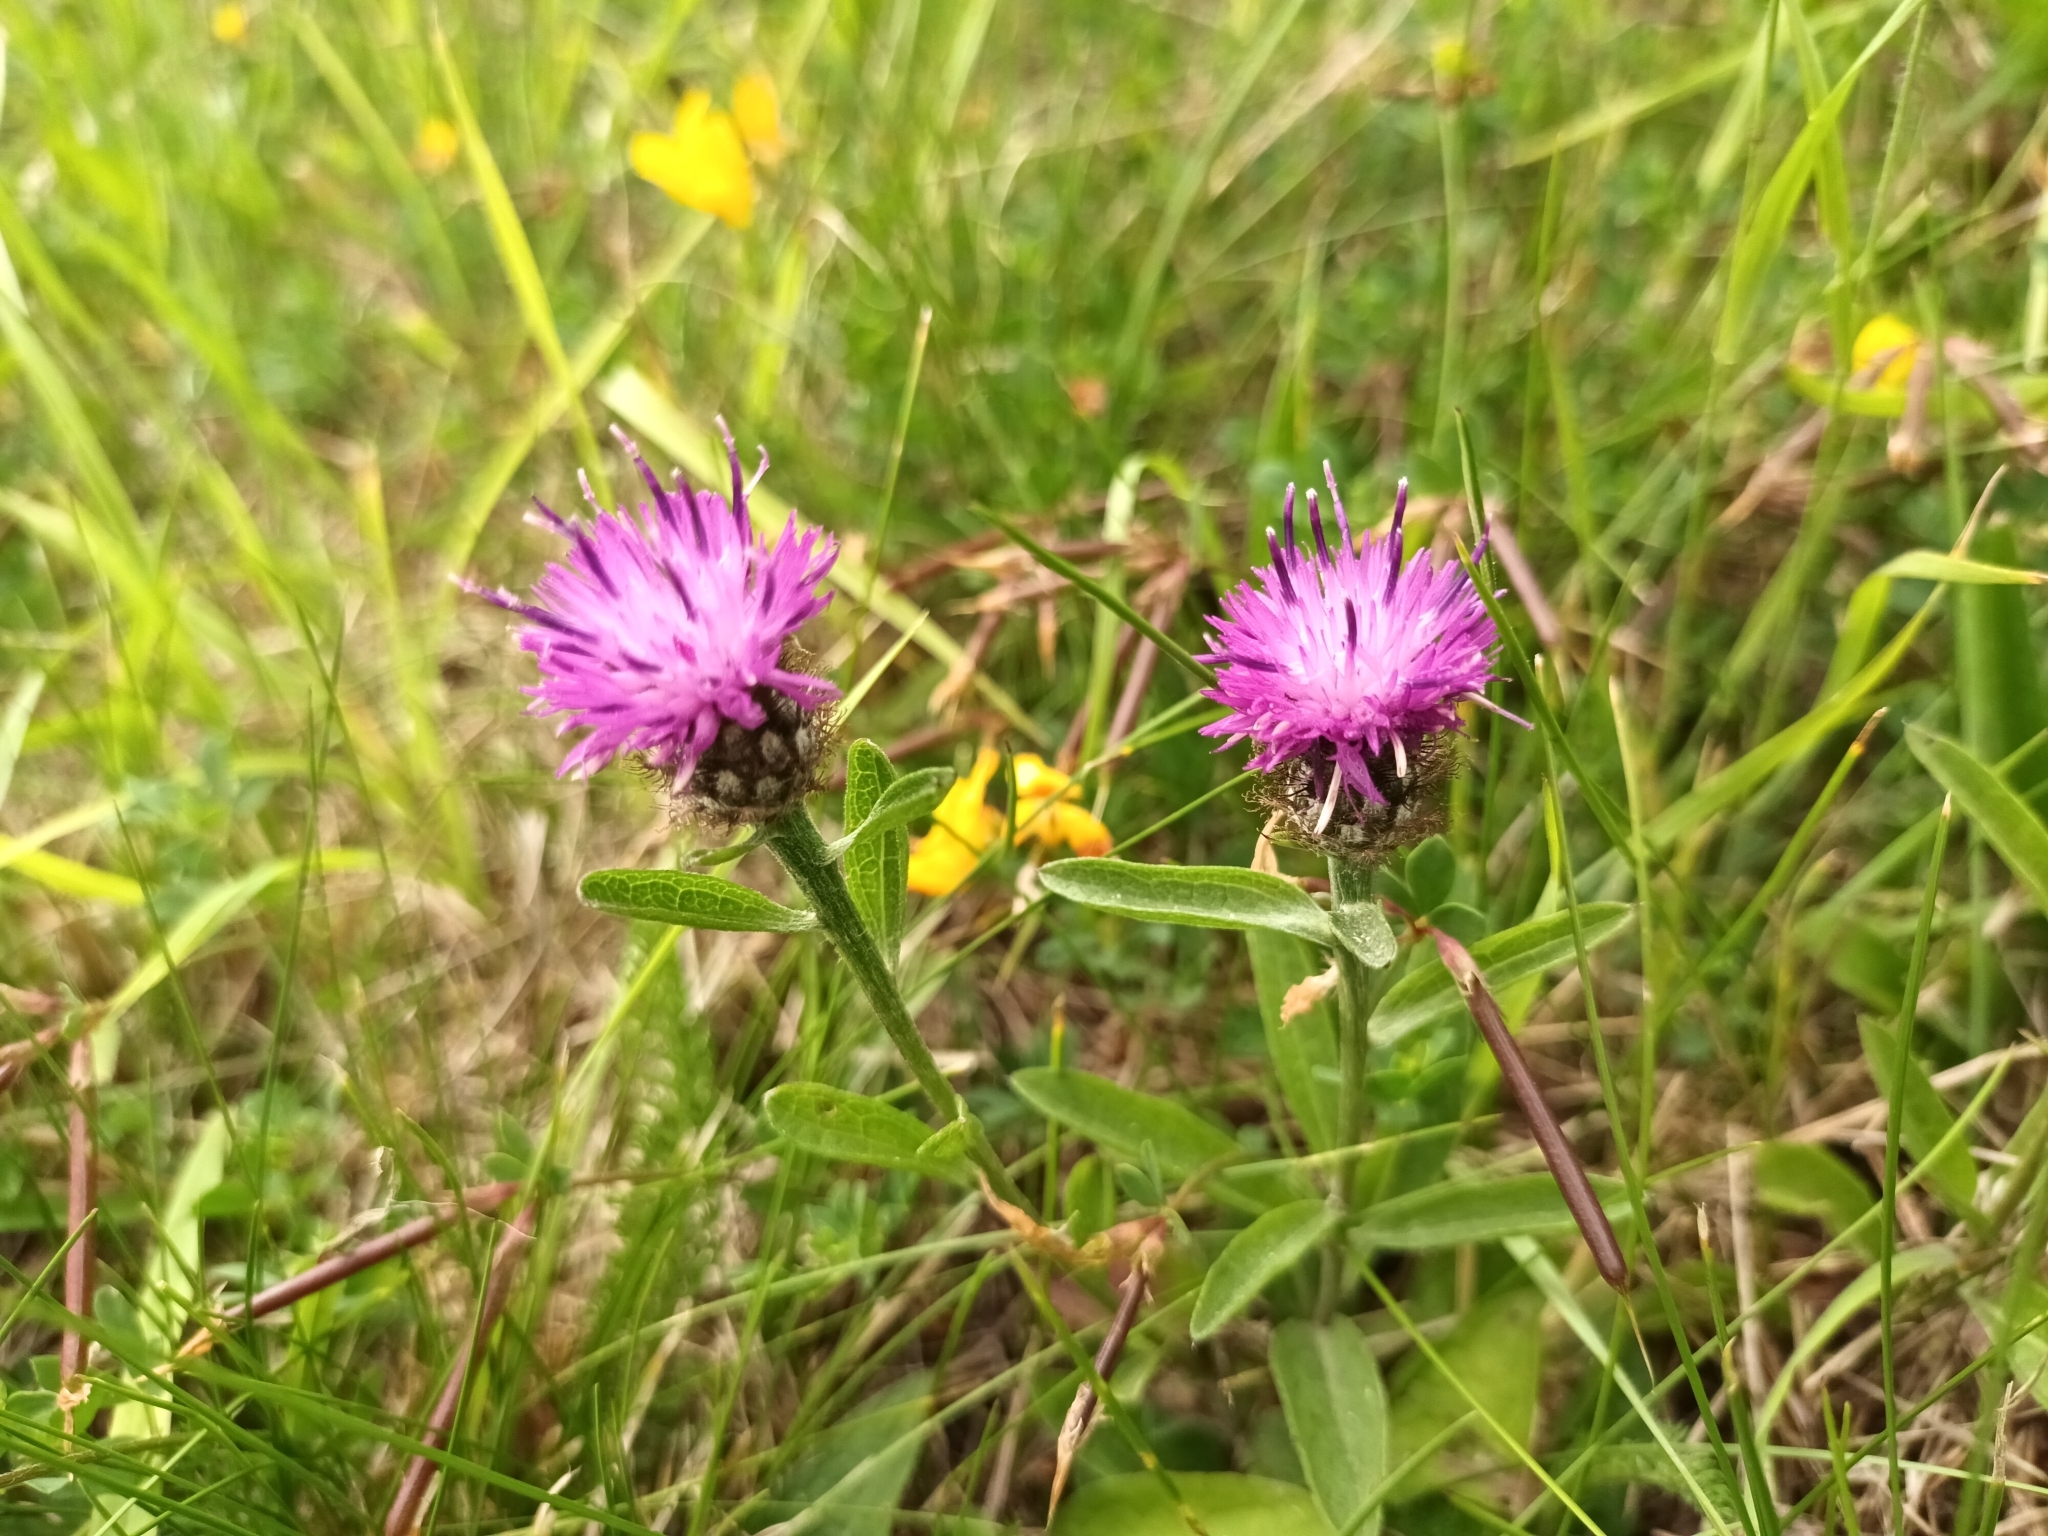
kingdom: Plantae
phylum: Tracheophyta
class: Magnoliopsida
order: Asterales
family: Asteraceae
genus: Centaurea
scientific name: Centaurea nigra
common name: Lesser knapweed
